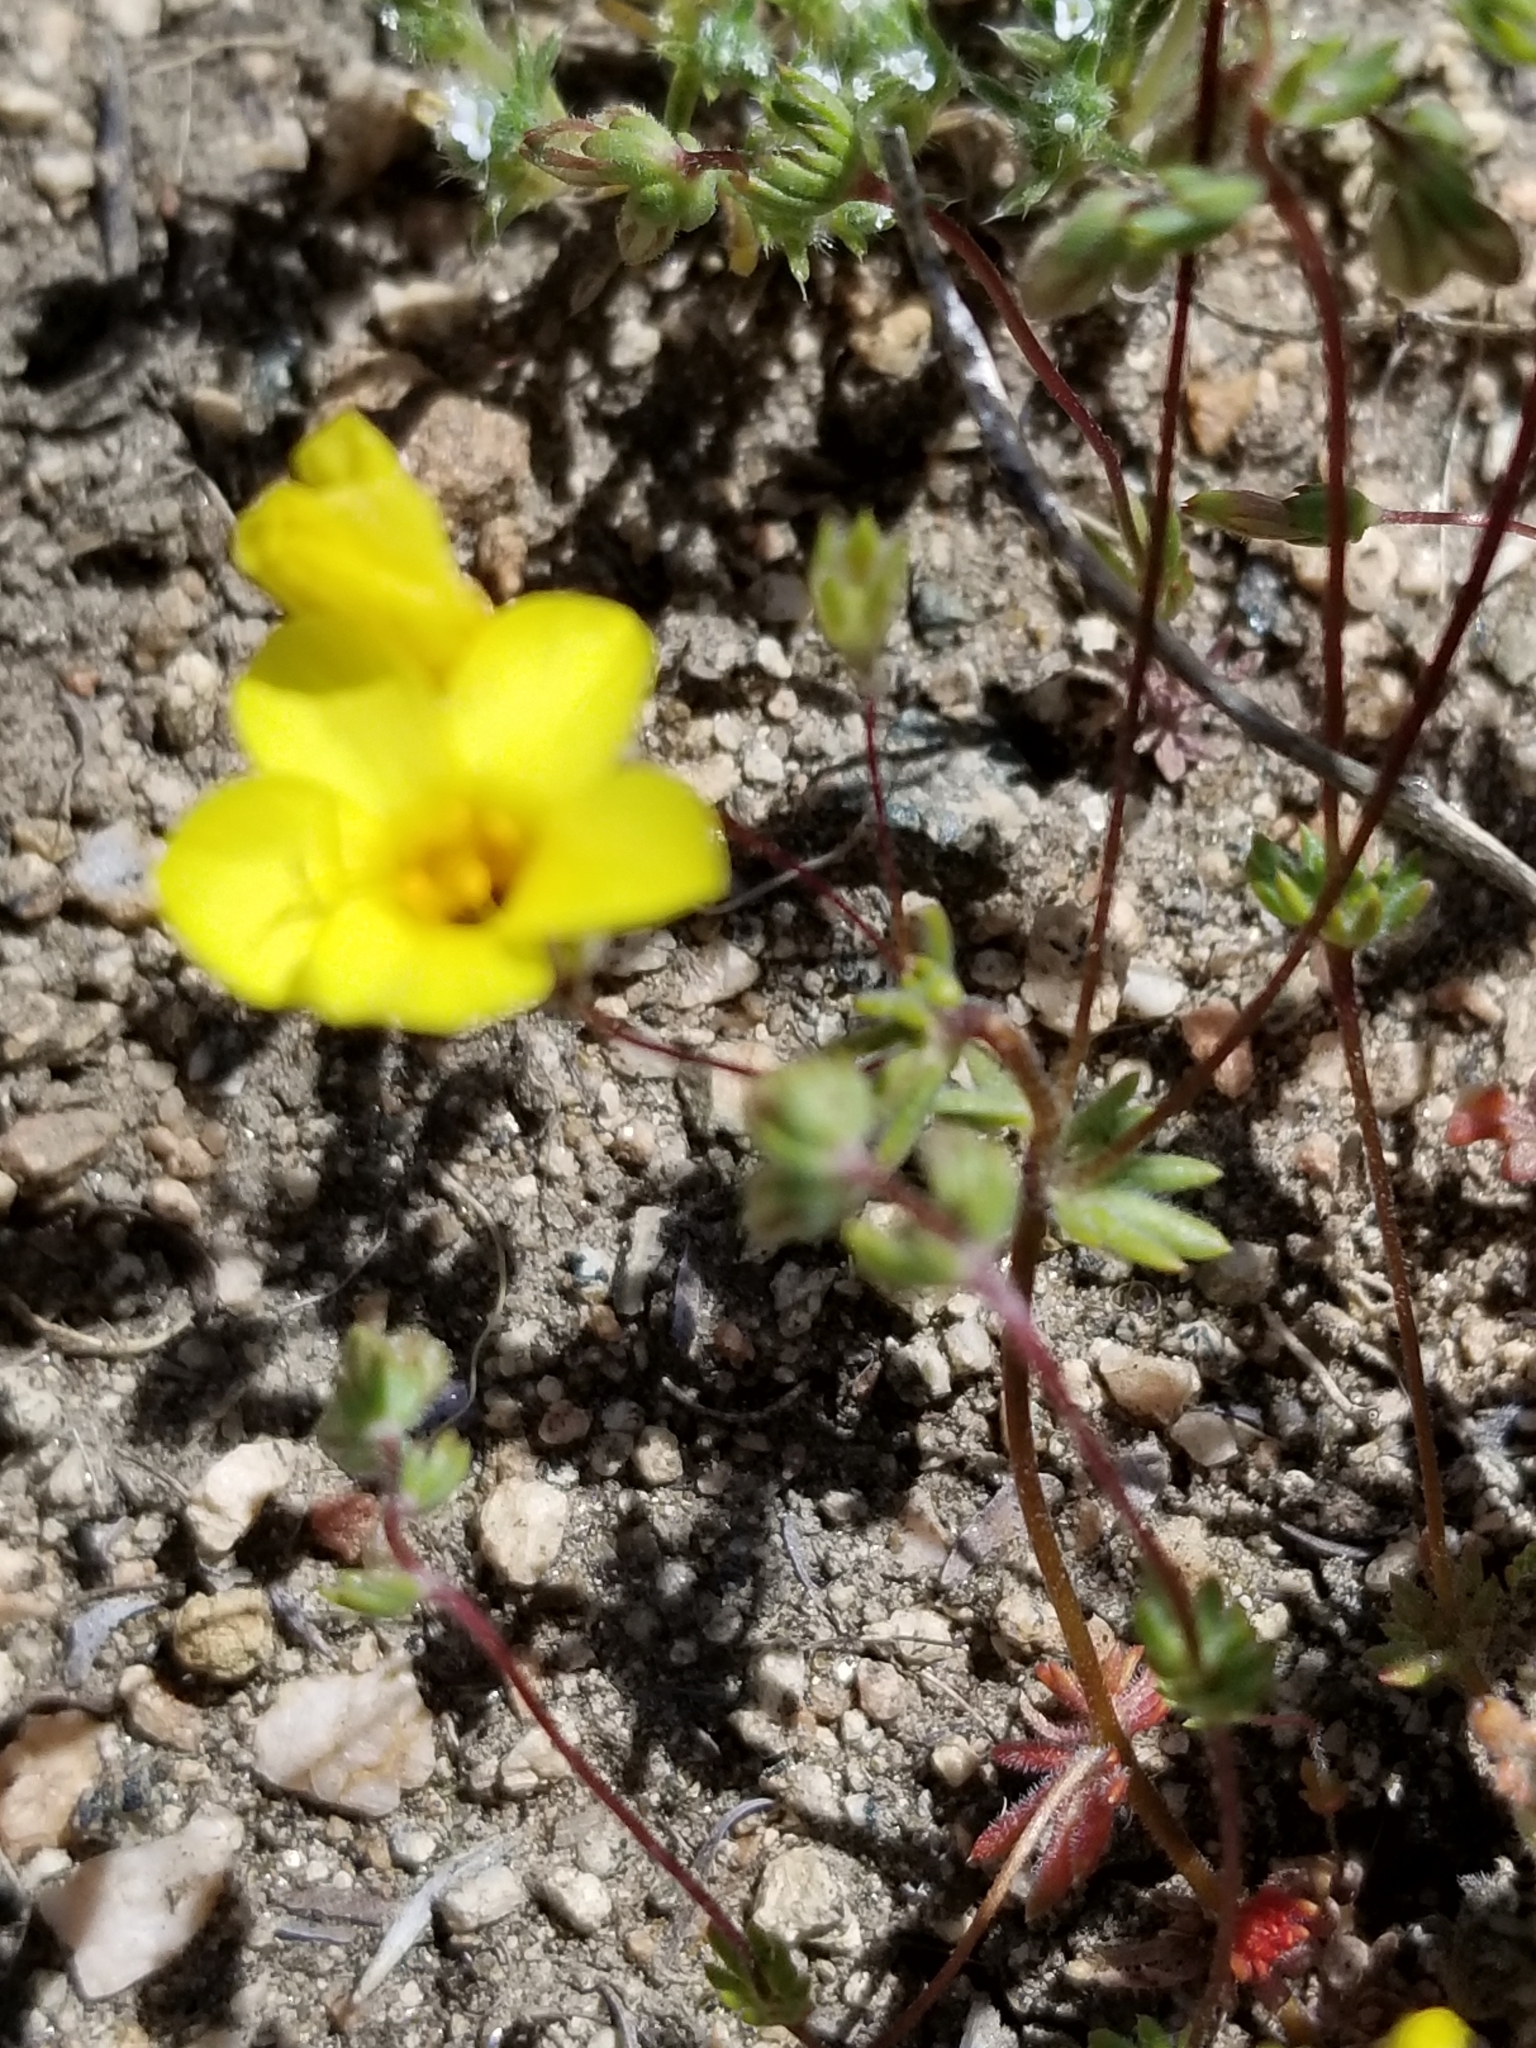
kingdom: Plantae
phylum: Tracheophyta
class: Magnoliopsida
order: Ericales
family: Polemoniaceae
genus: Leptosiphon
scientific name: Leptosiphon chrysanthus
